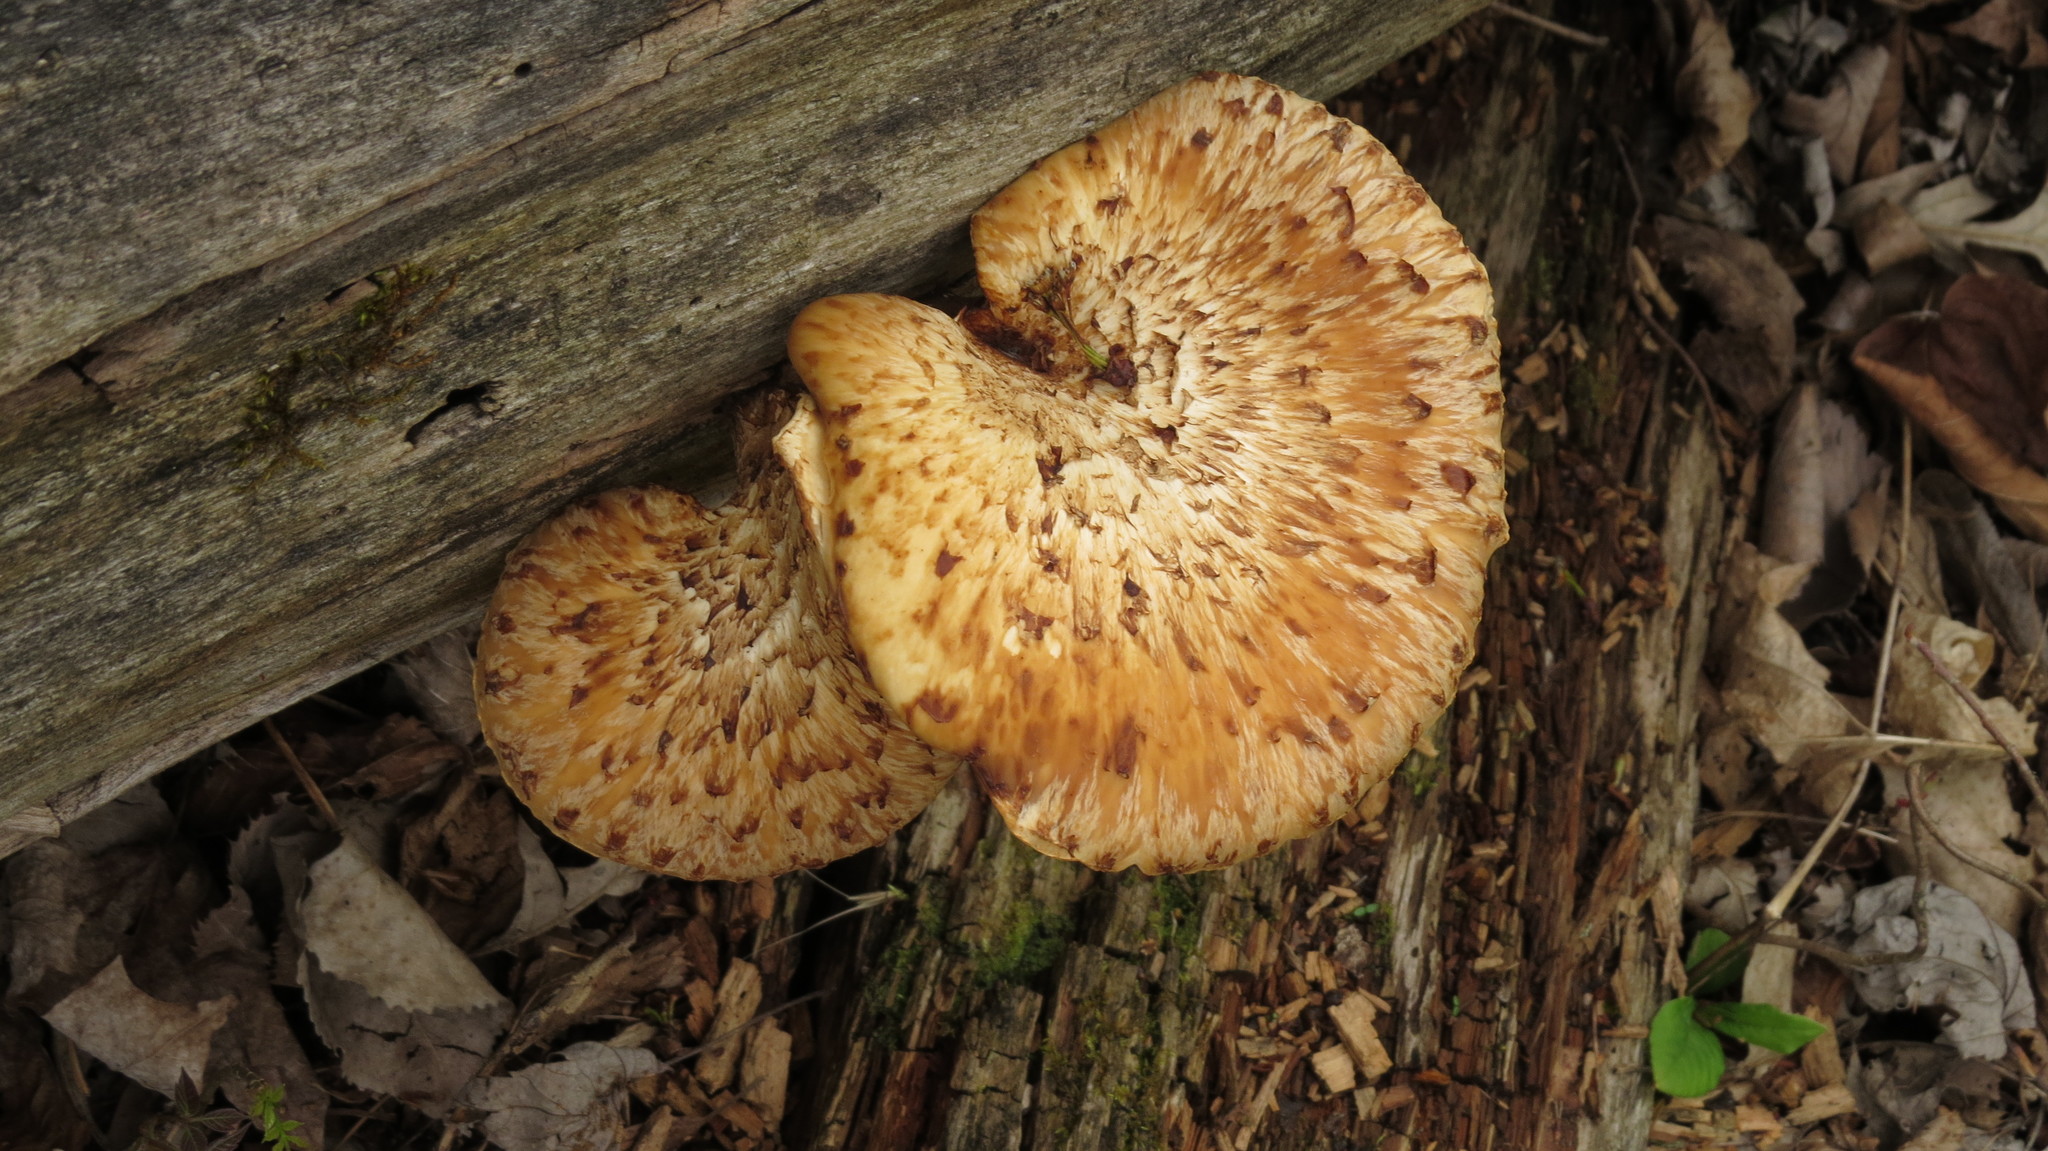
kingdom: Fungi
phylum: Basidiomycota
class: Agaricomycetes
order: Polyporales
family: Polyporaceae
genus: Cerioporus
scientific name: Cerioporus squamosus
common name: Dryad's saddle
